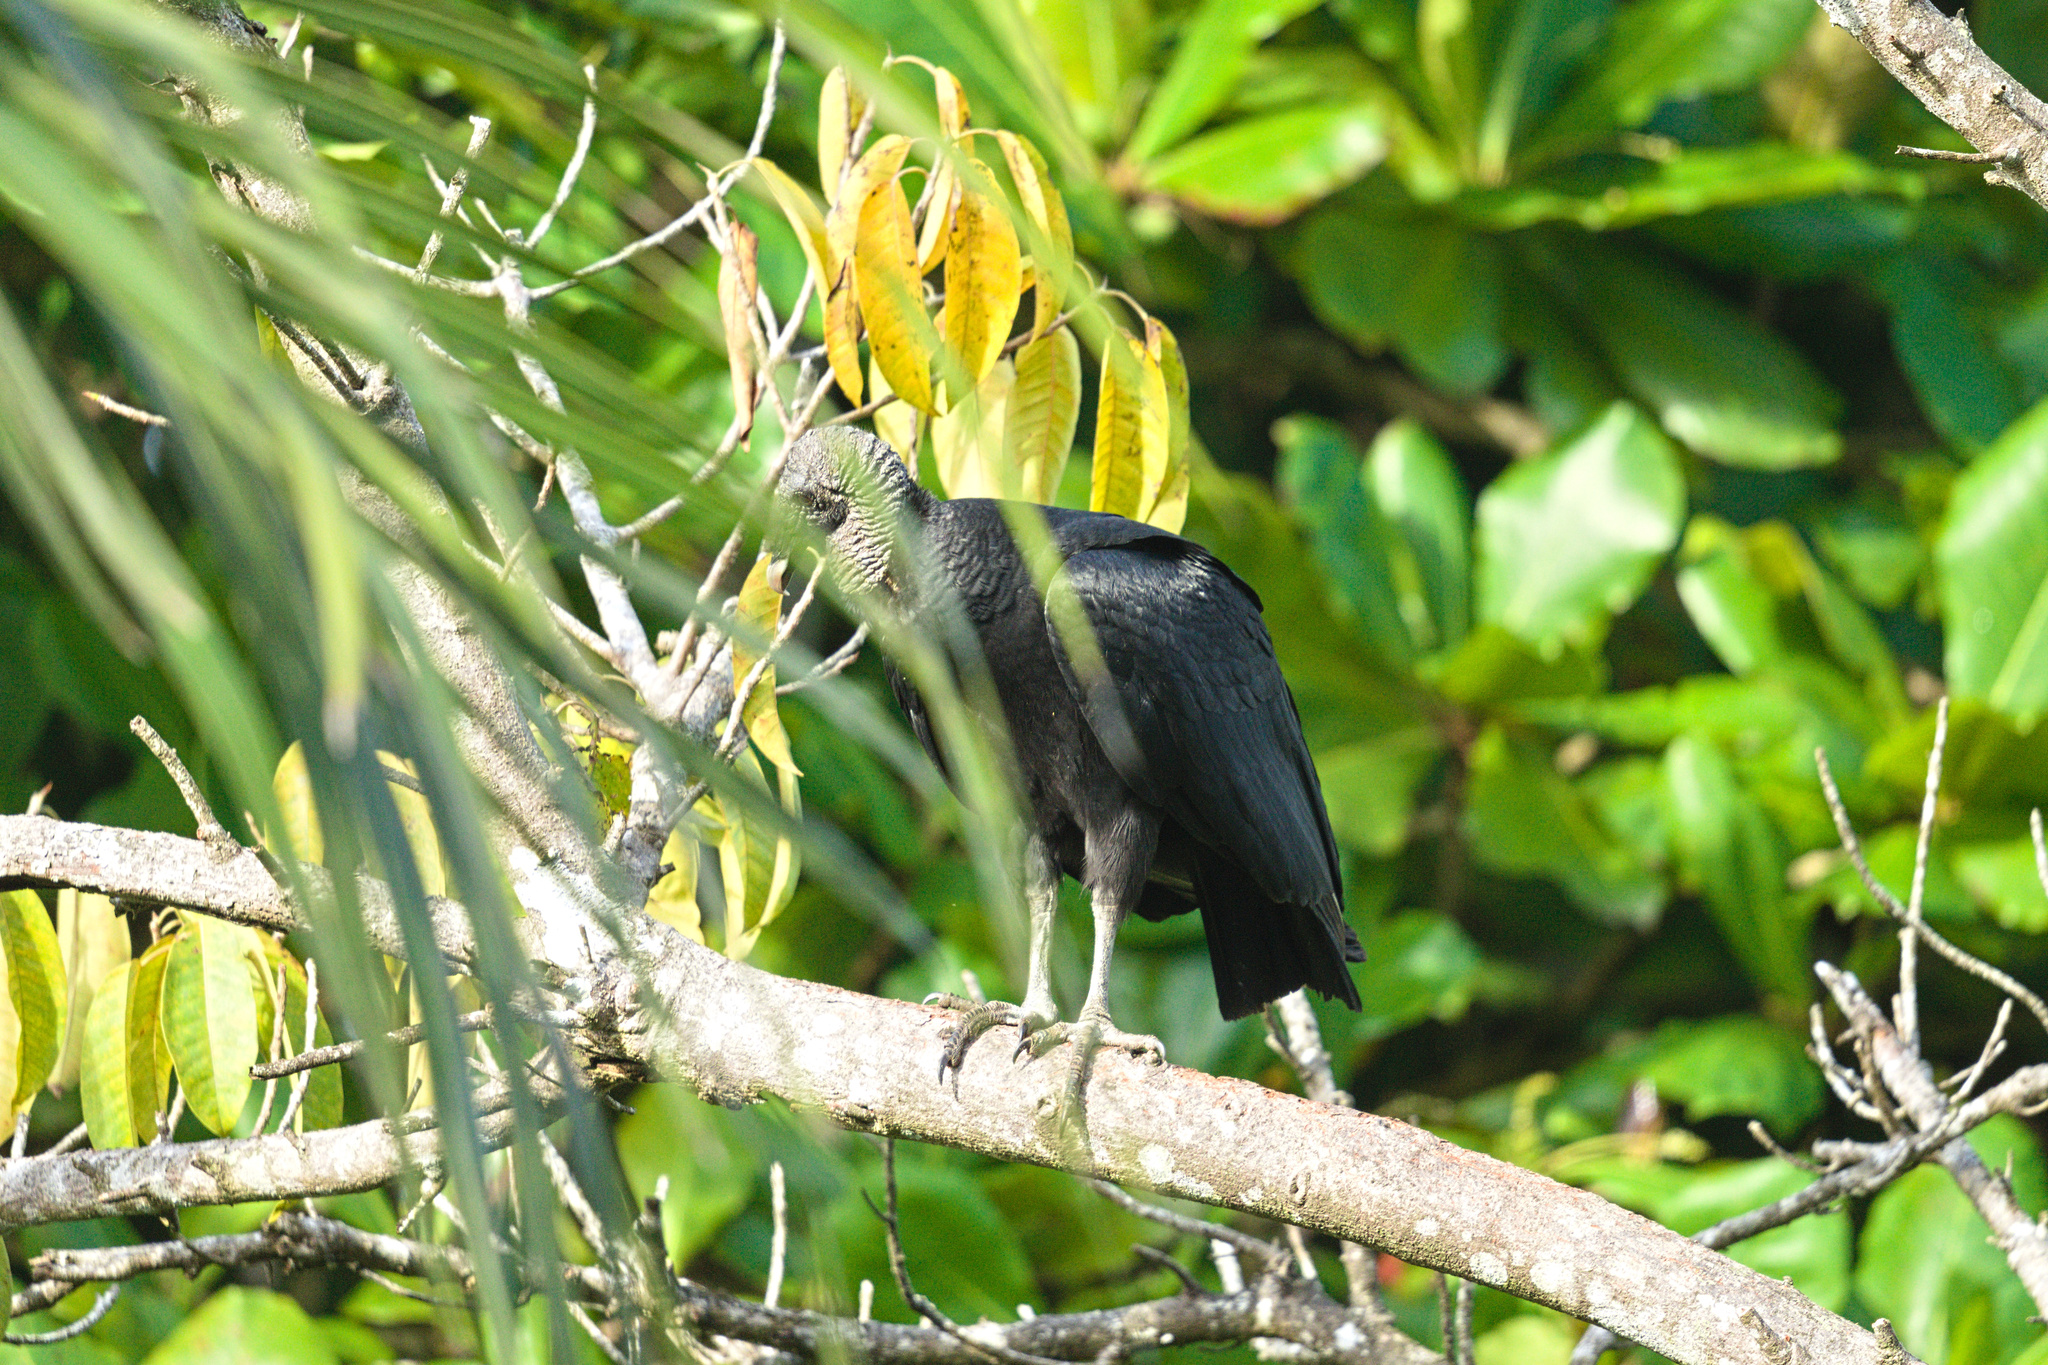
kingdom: Animalia
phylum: Chordata
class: Aves
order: Accipitriformes
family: Cathartidae
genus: Coragyps
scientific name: Coragyps atratus
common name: Black vulture
